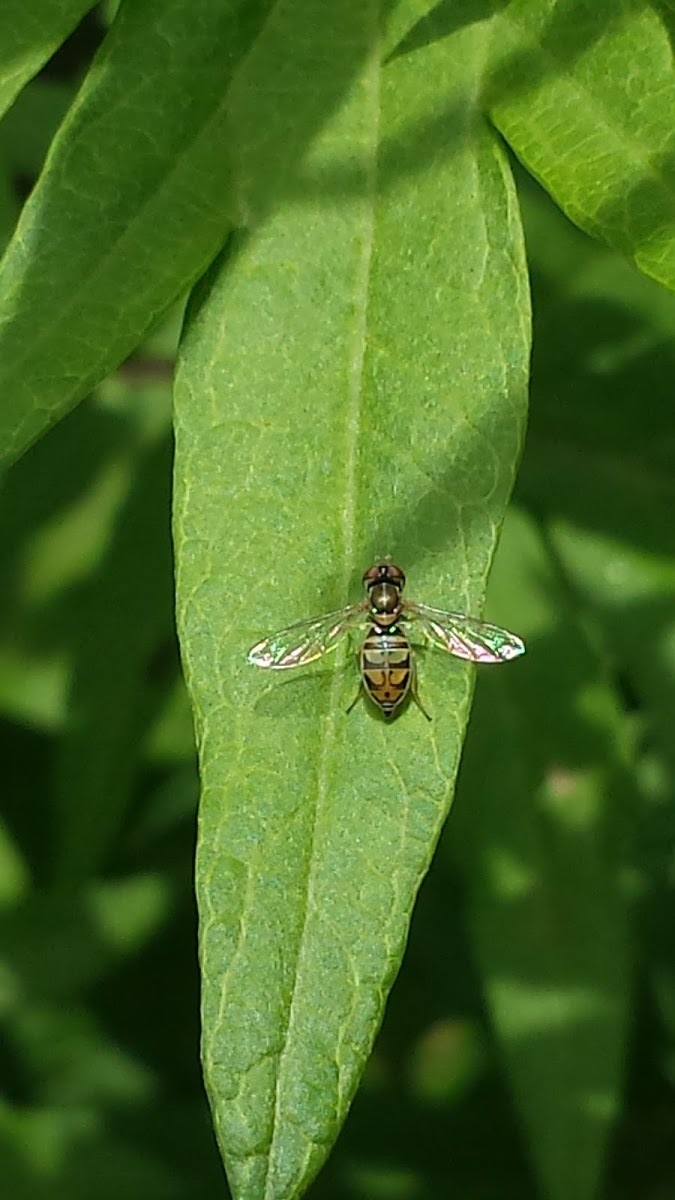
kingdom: Animalia
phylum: Arthropoda
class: Insecta
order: Diptera
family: Syrphidae
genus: Toxomerus
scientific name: Toxomerus marginatus
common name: Syrphid fly
